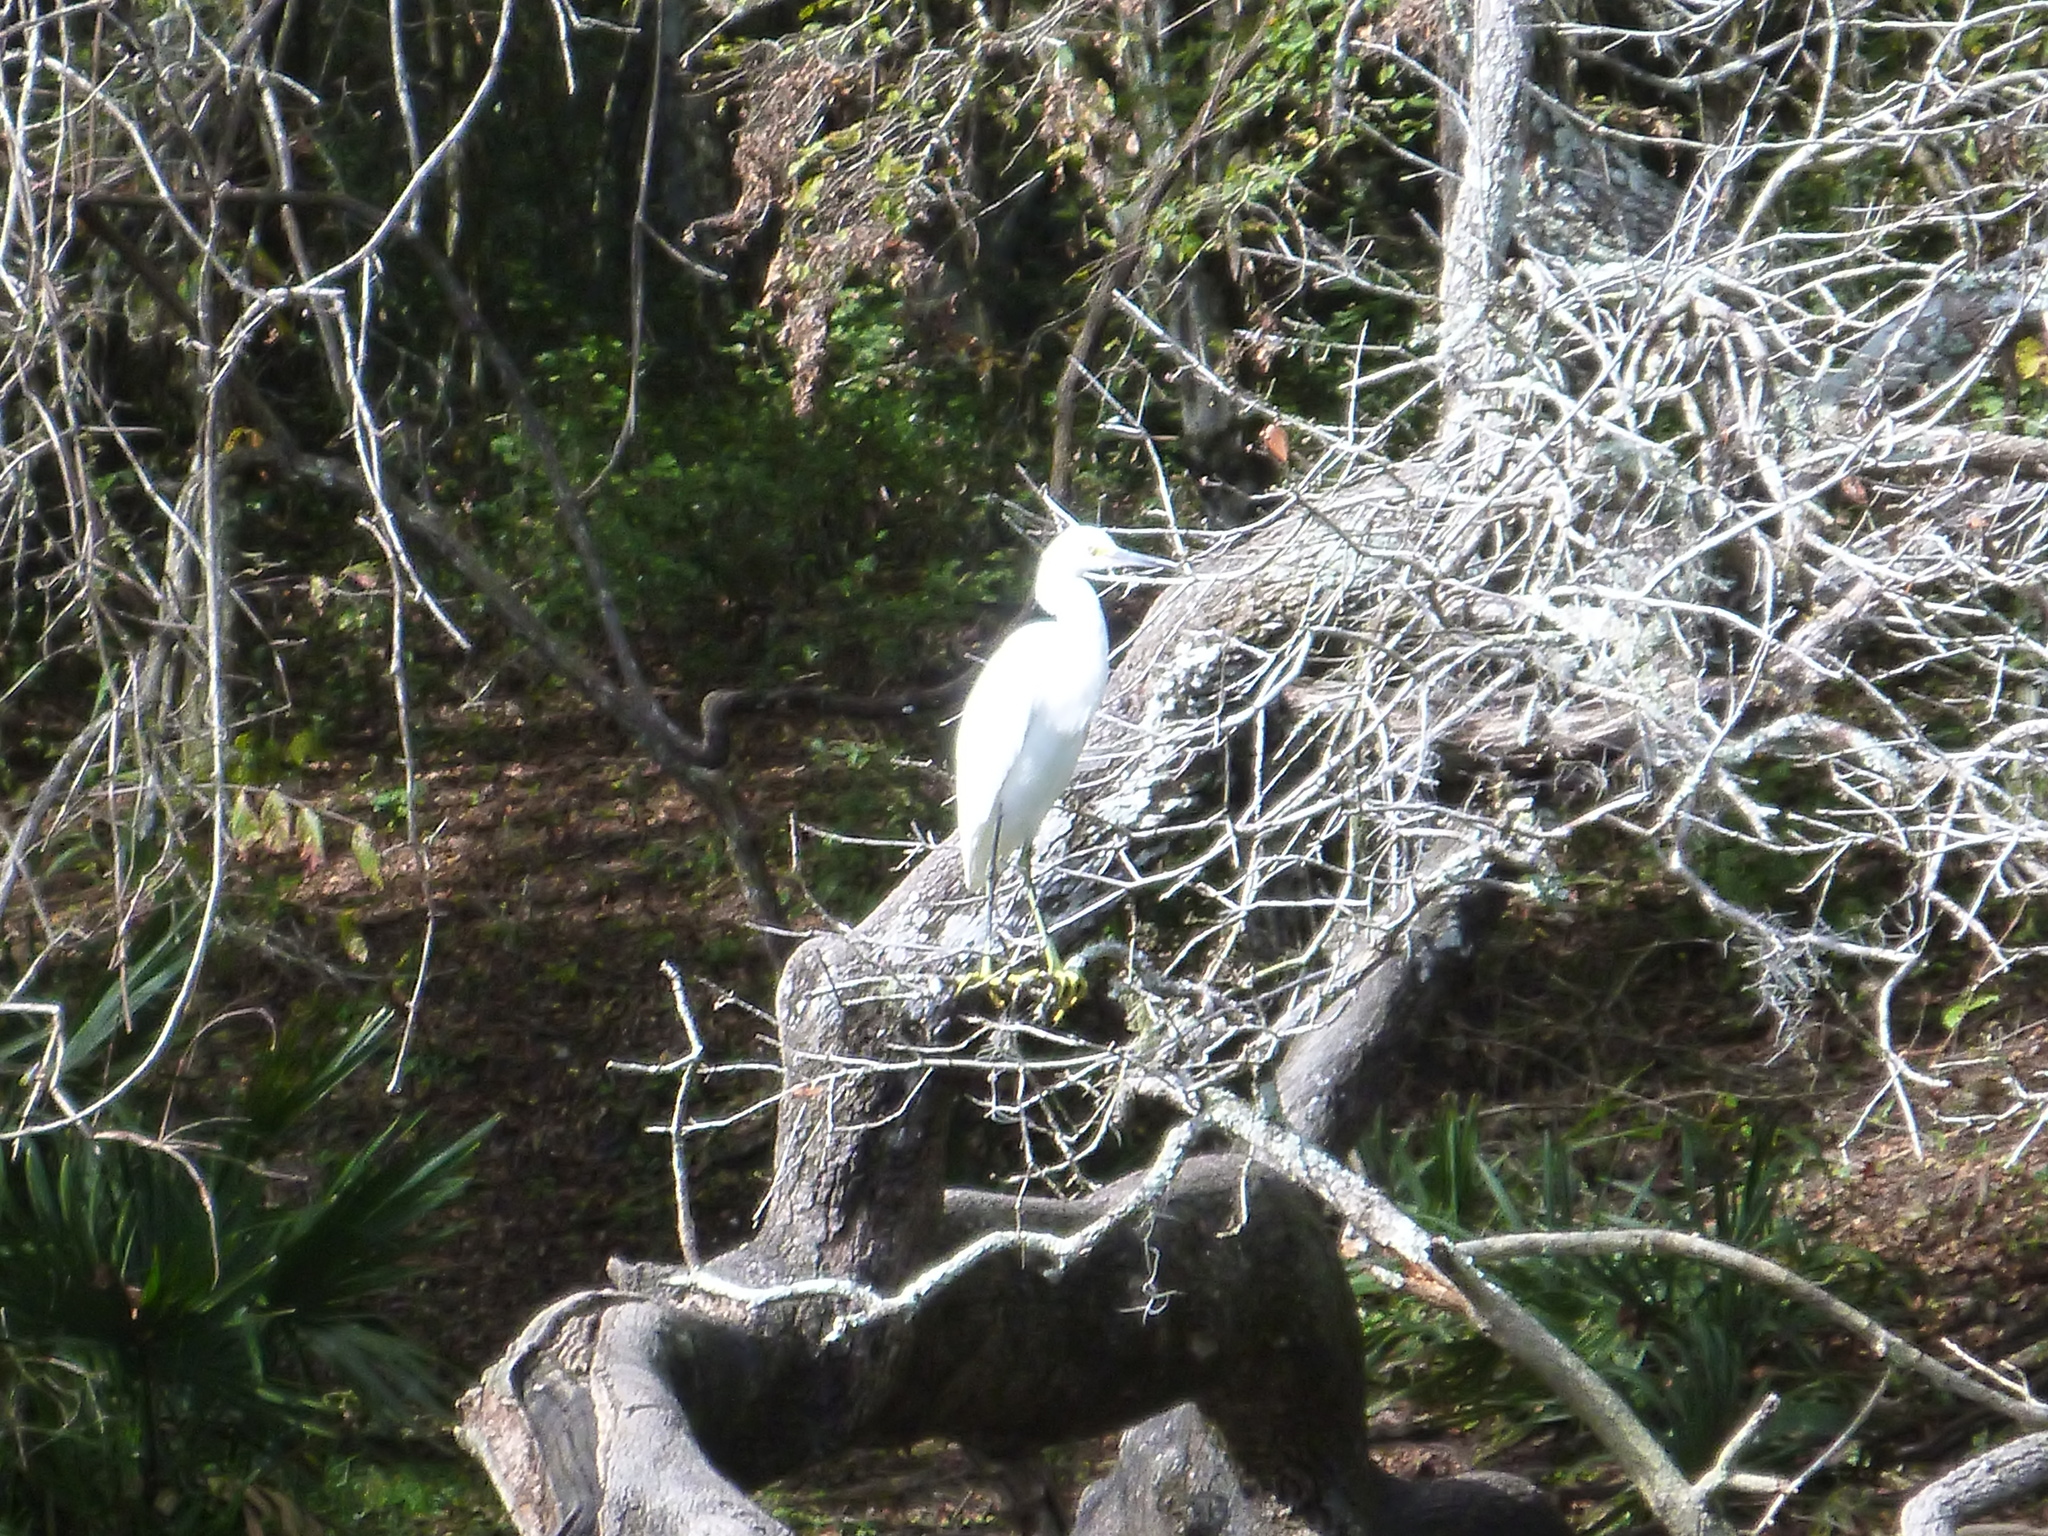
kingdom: Animalia
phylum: Chordata
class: Aves
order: Pelecaniformes
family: Ardeidae
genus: Egretta
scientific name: Egretta thula
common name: Snowy egret
